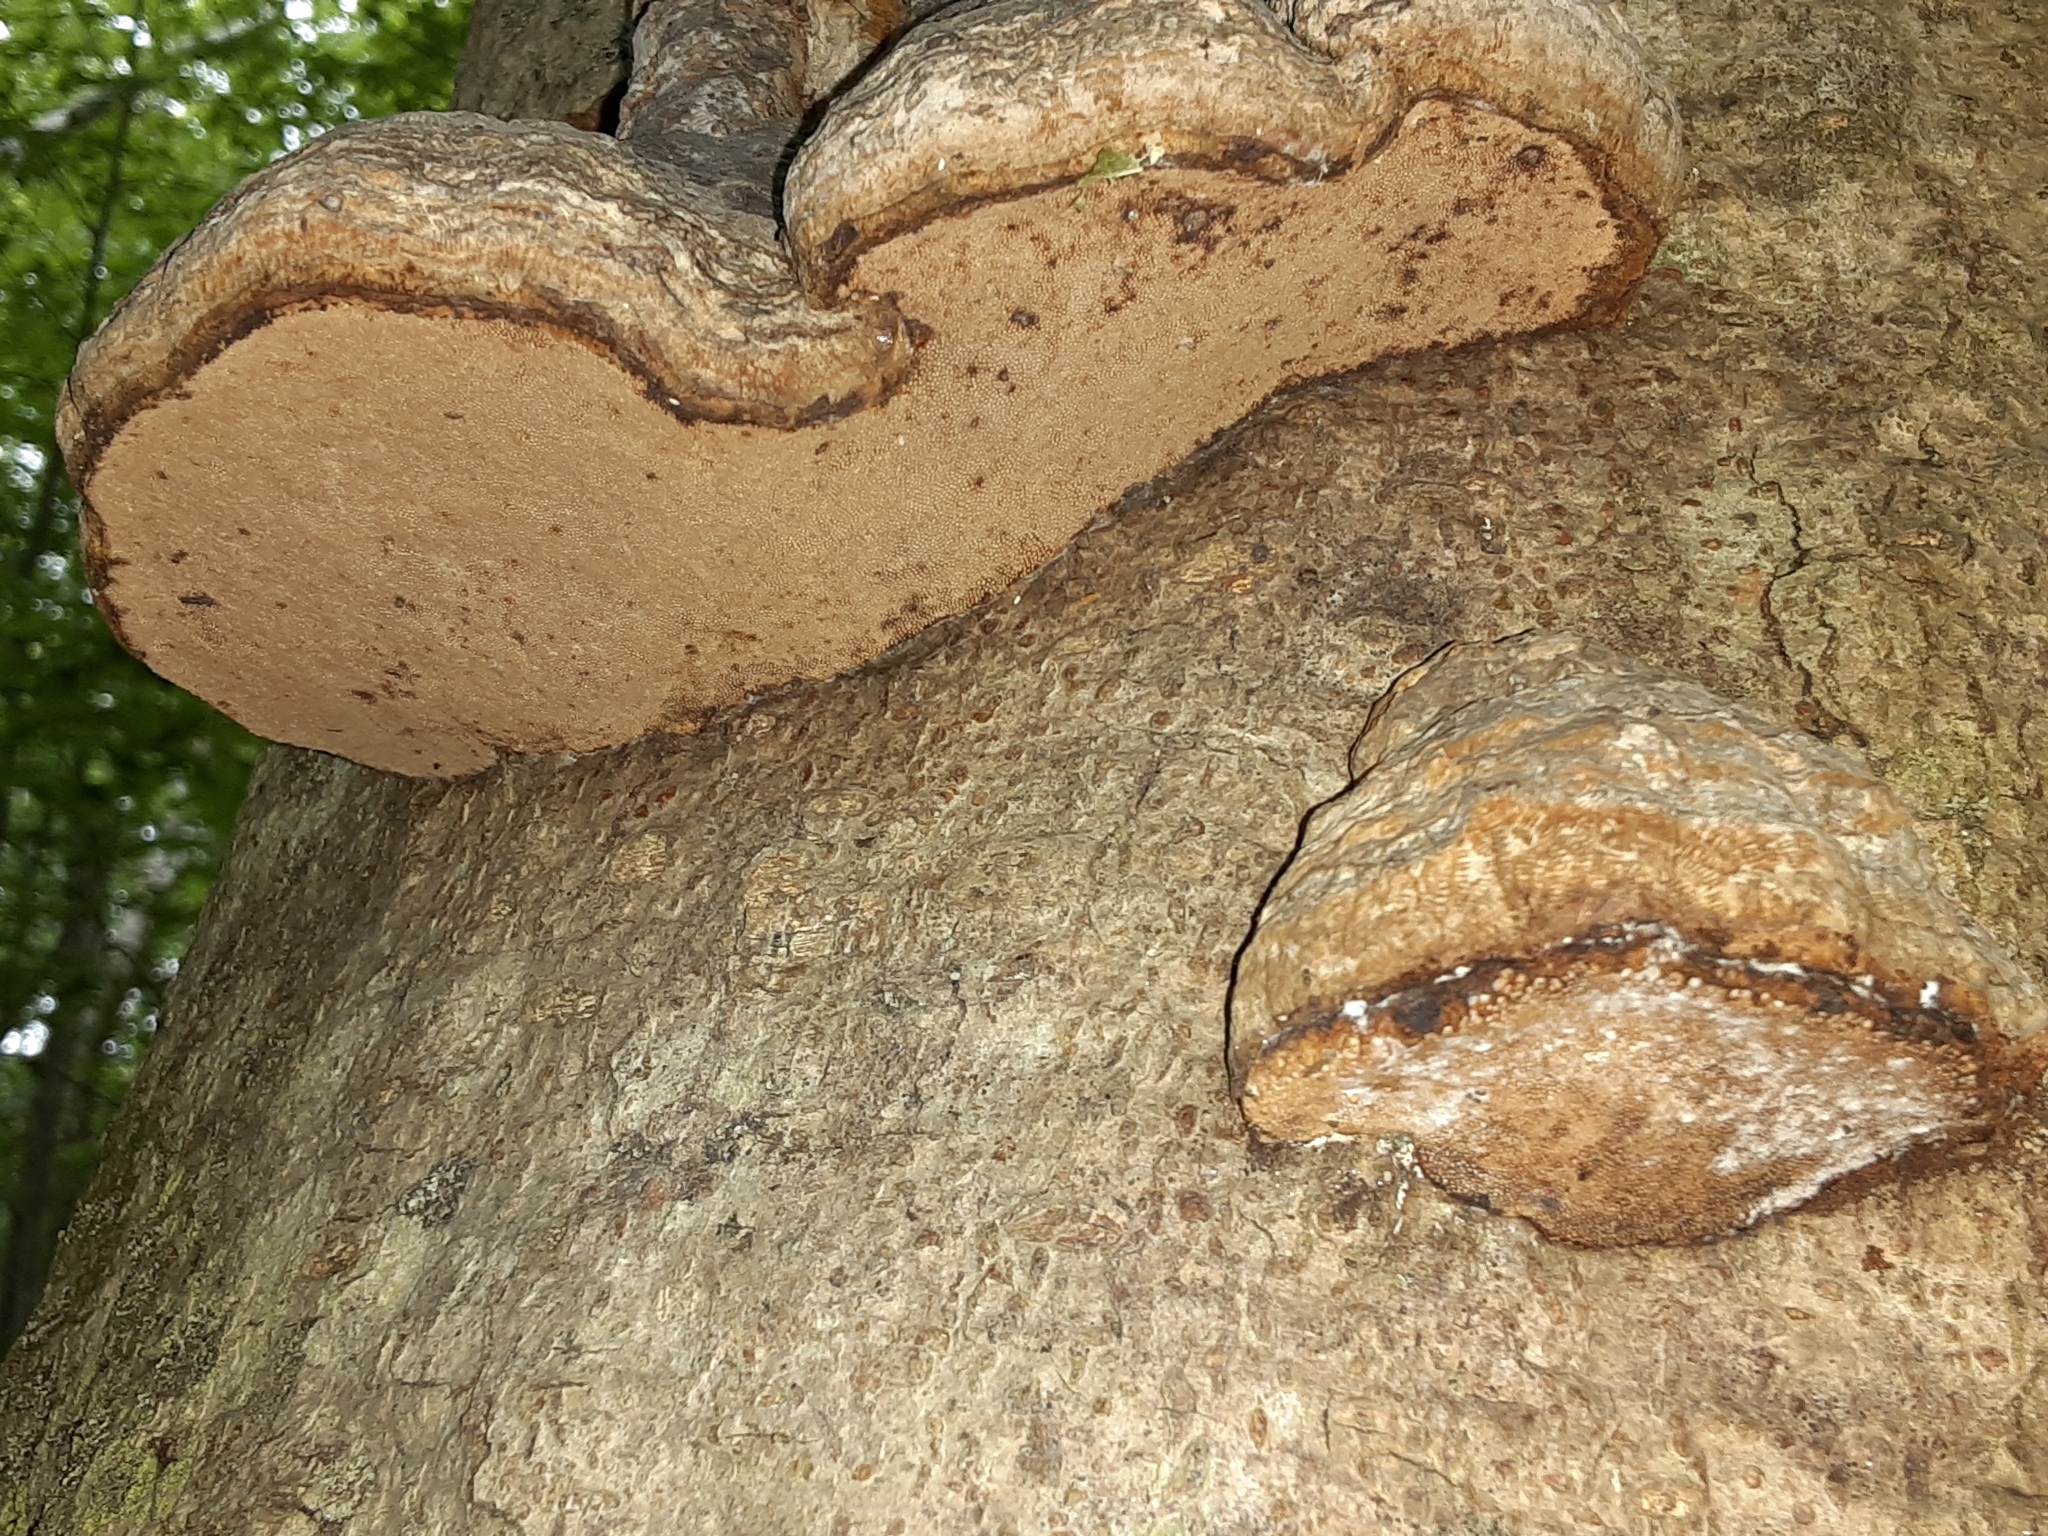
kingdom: Fungi
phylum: Basidiomycota
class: Agaricomycetes
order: Polyporales
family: Polyporaceae
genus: Fomes
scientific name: Fomes fomentarius
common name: Hoof fungus
